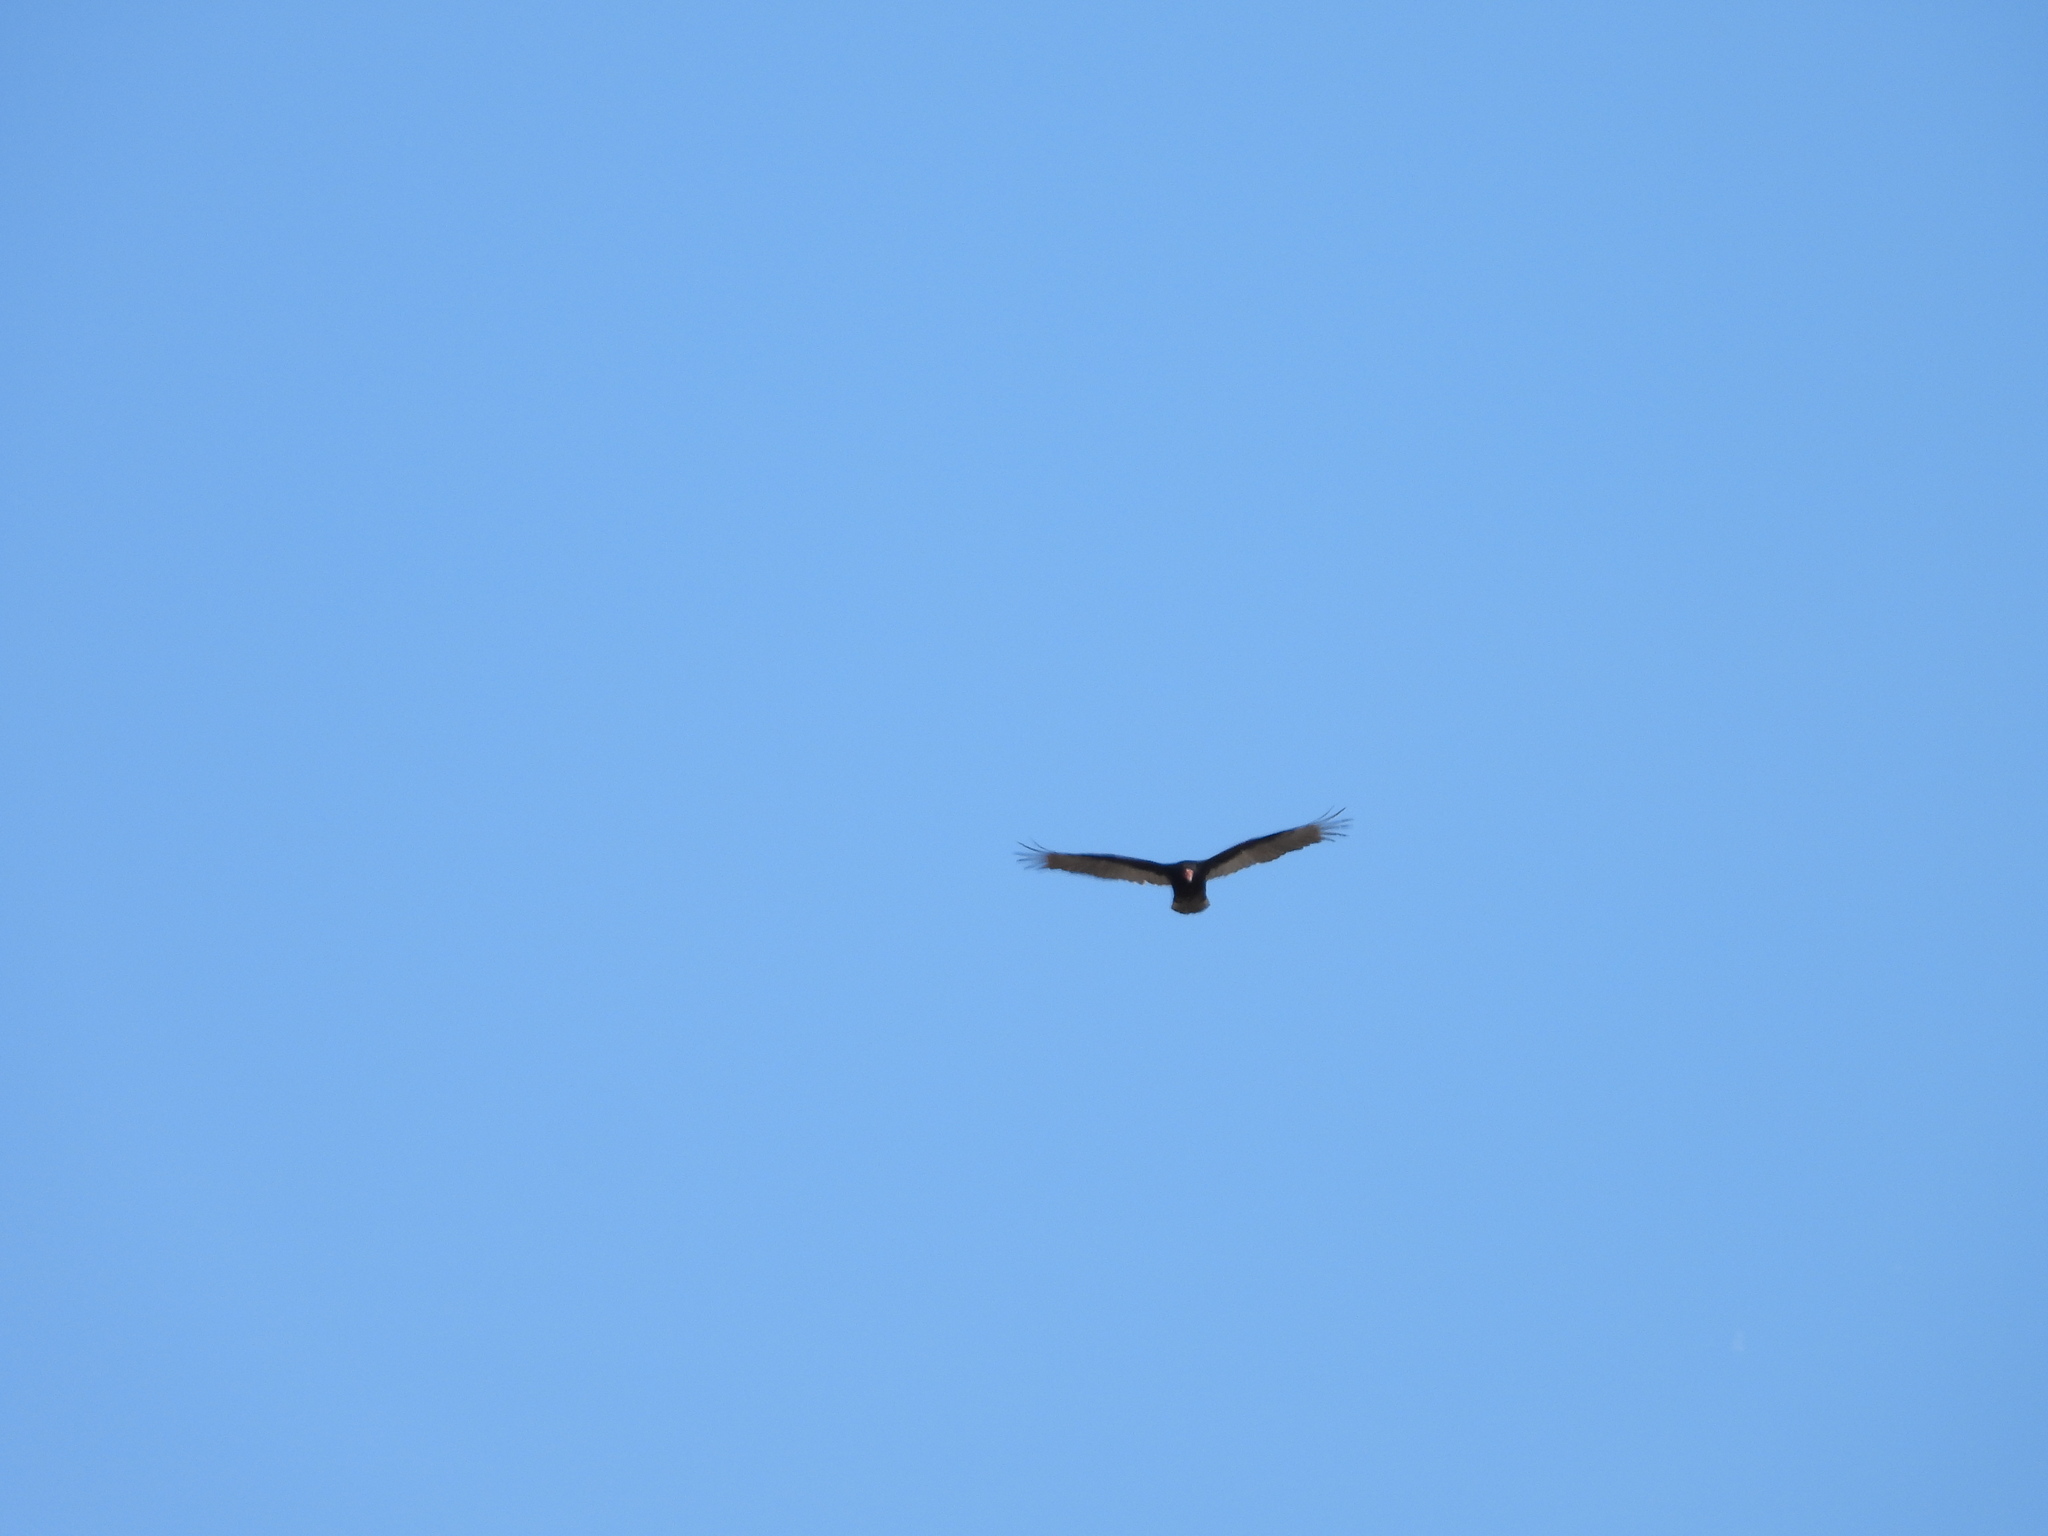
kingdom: Animalia
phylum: Chordata
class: Aves
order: Accipitriformes
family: Cathartidae
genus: Cathartes
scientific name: Cathartes aura
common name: Turkey vulture
